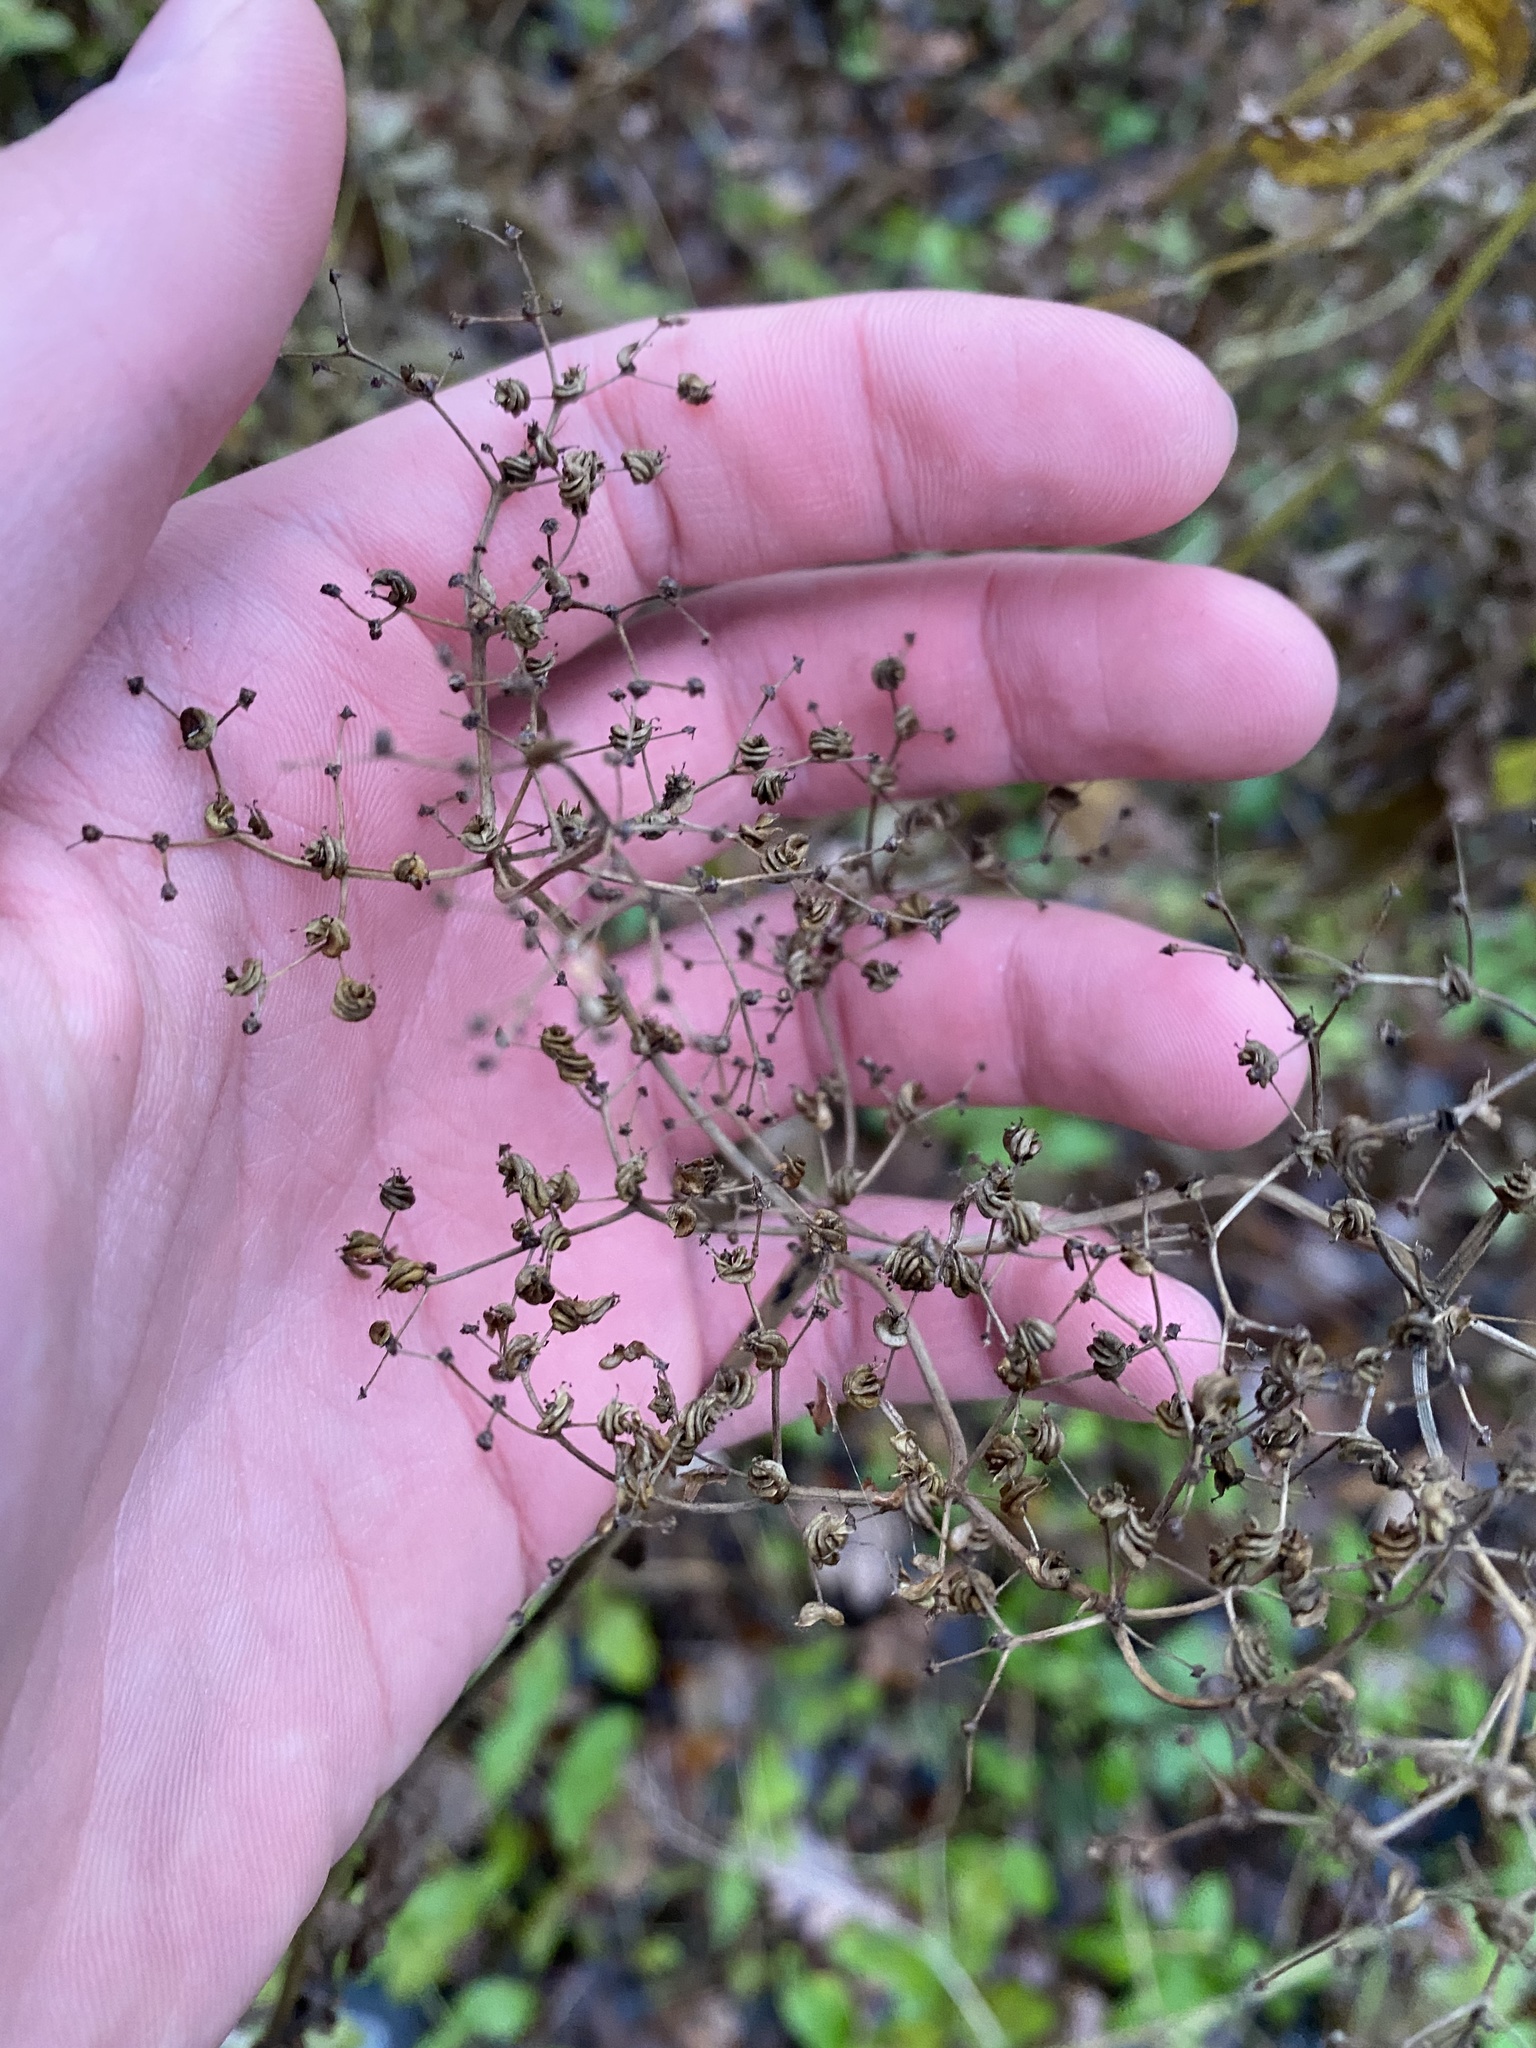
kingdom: Plantae
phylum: Tracheophyta
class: Magnoliopsida
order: Rosales
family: Rosaceae
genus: Filipendula
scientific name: Filipendula ulmaria
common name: Meadowsweet
